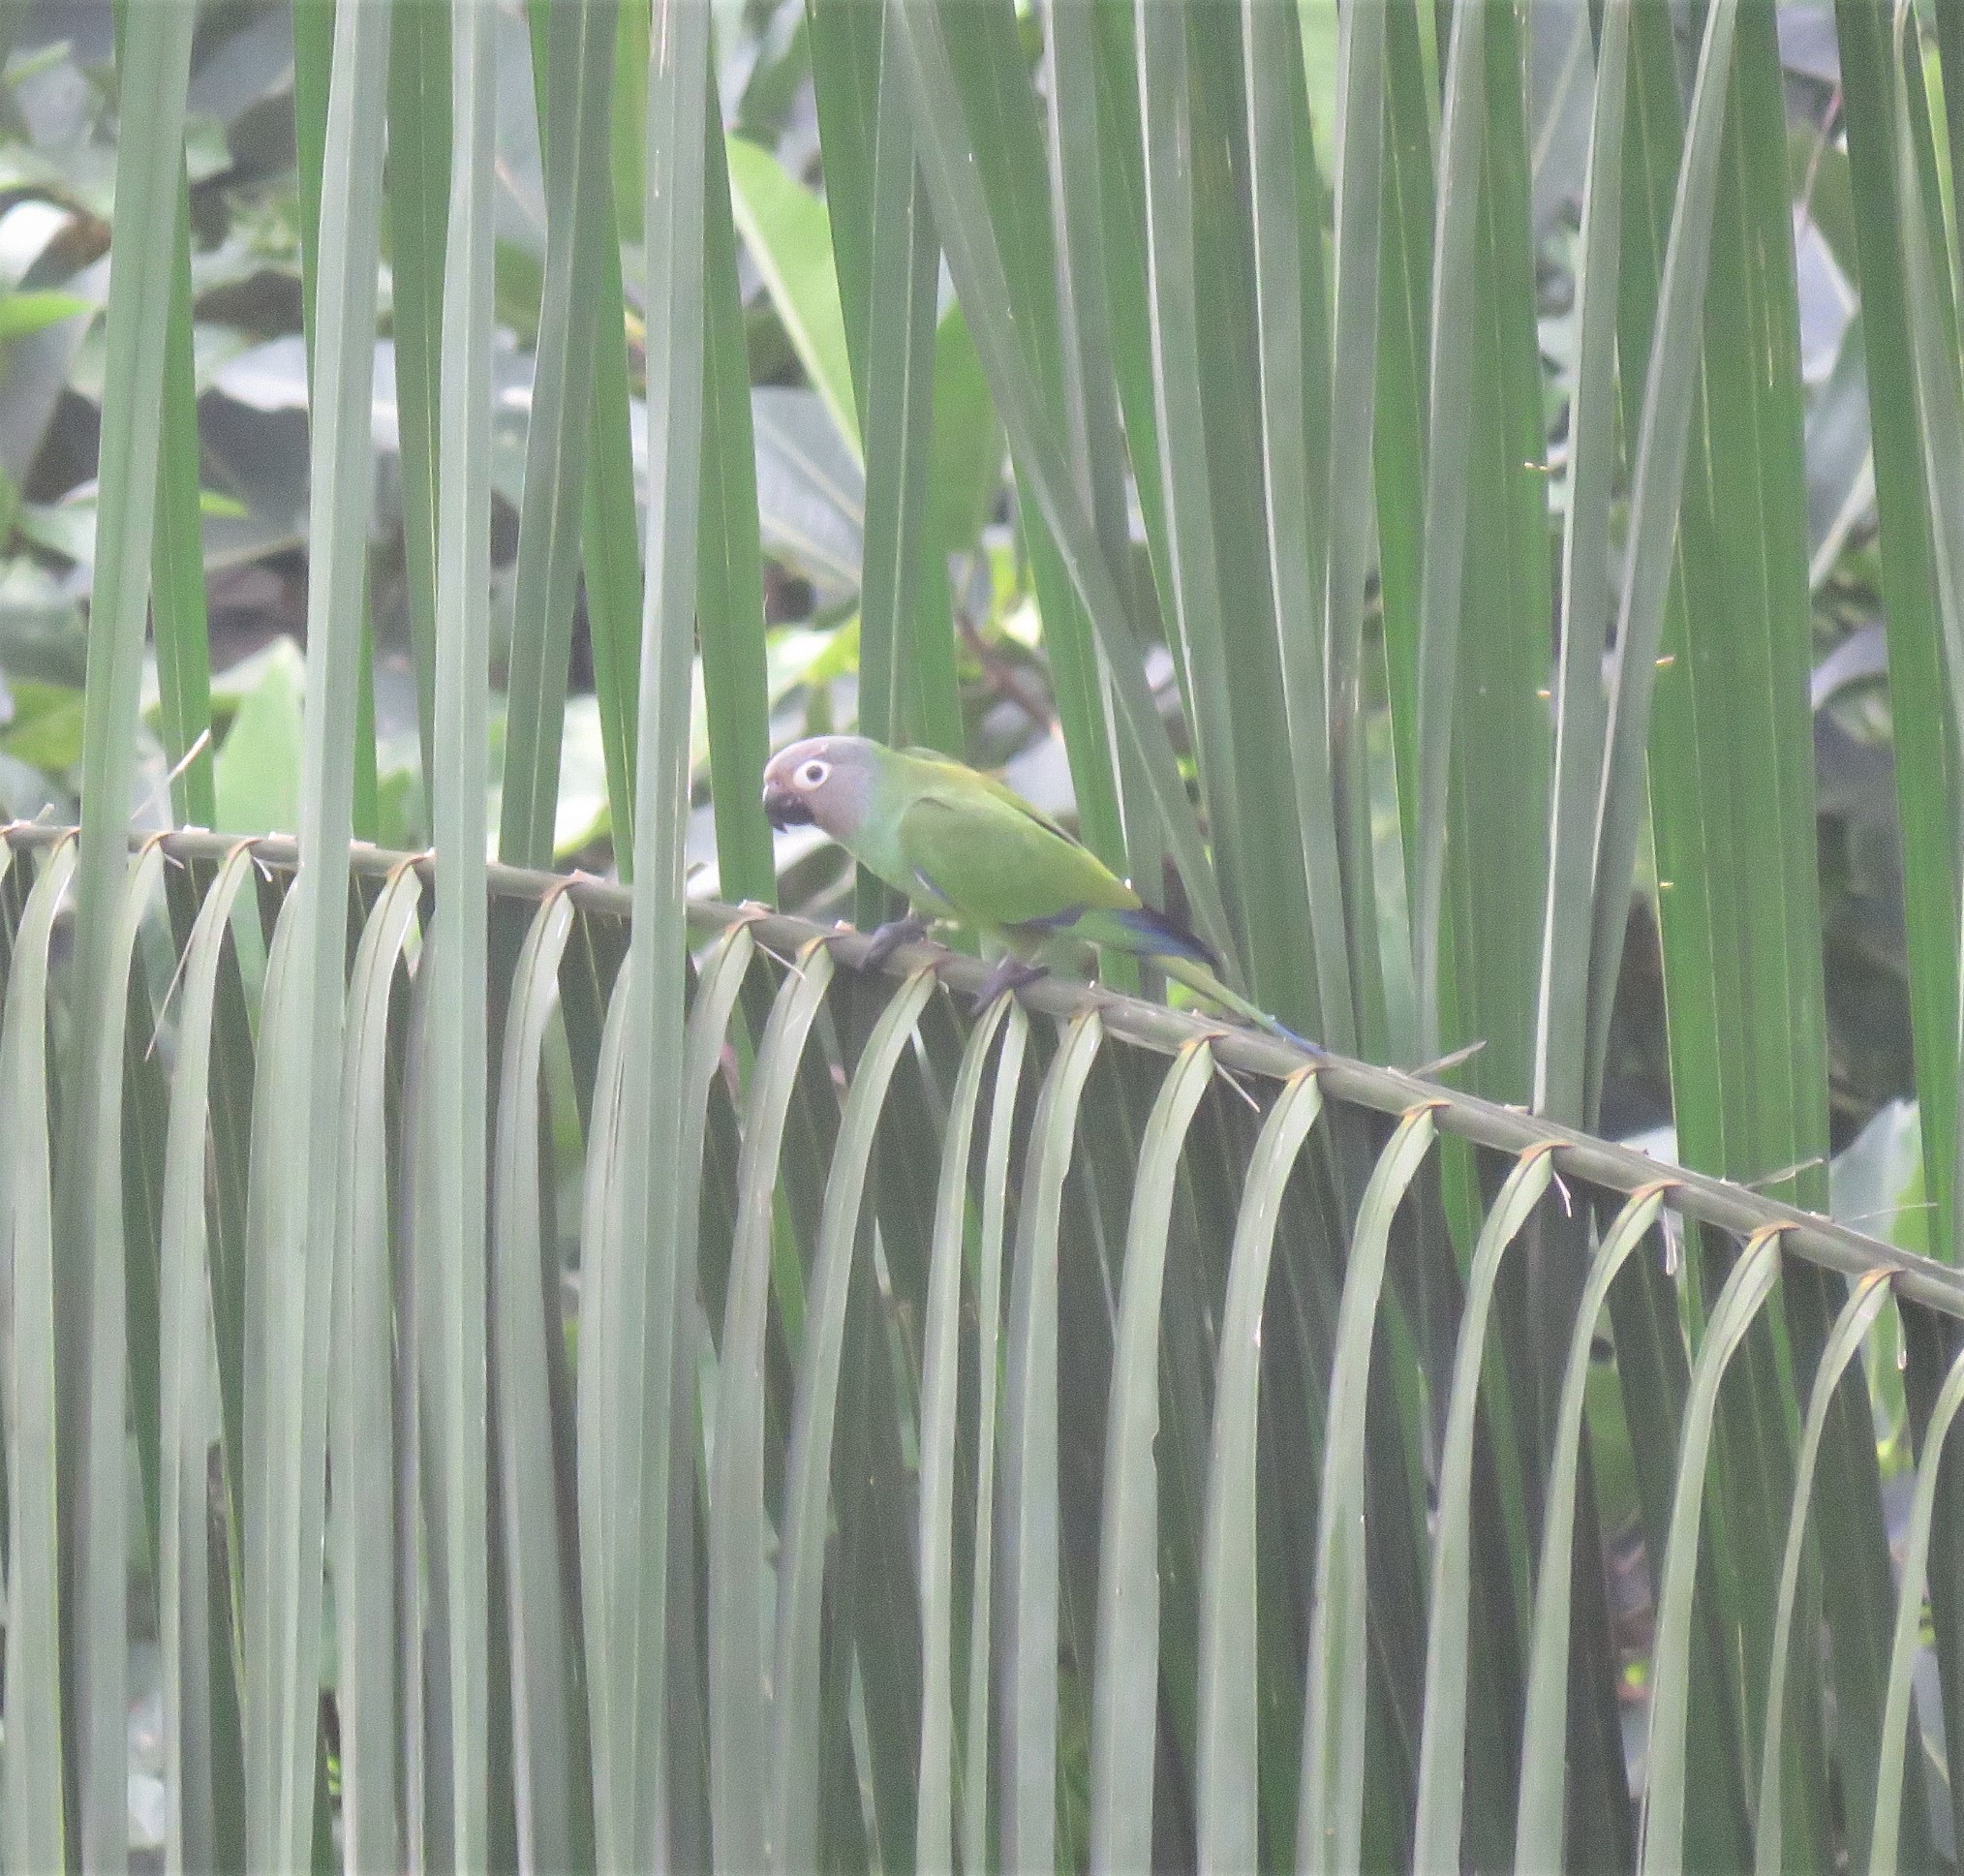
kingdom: Animalia
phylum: Chordata
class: Aves
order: Psittaciformes
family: Psittacidae
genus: Aratinga
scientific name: Aratinga weddellii
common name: Dusky-headed parakeet
